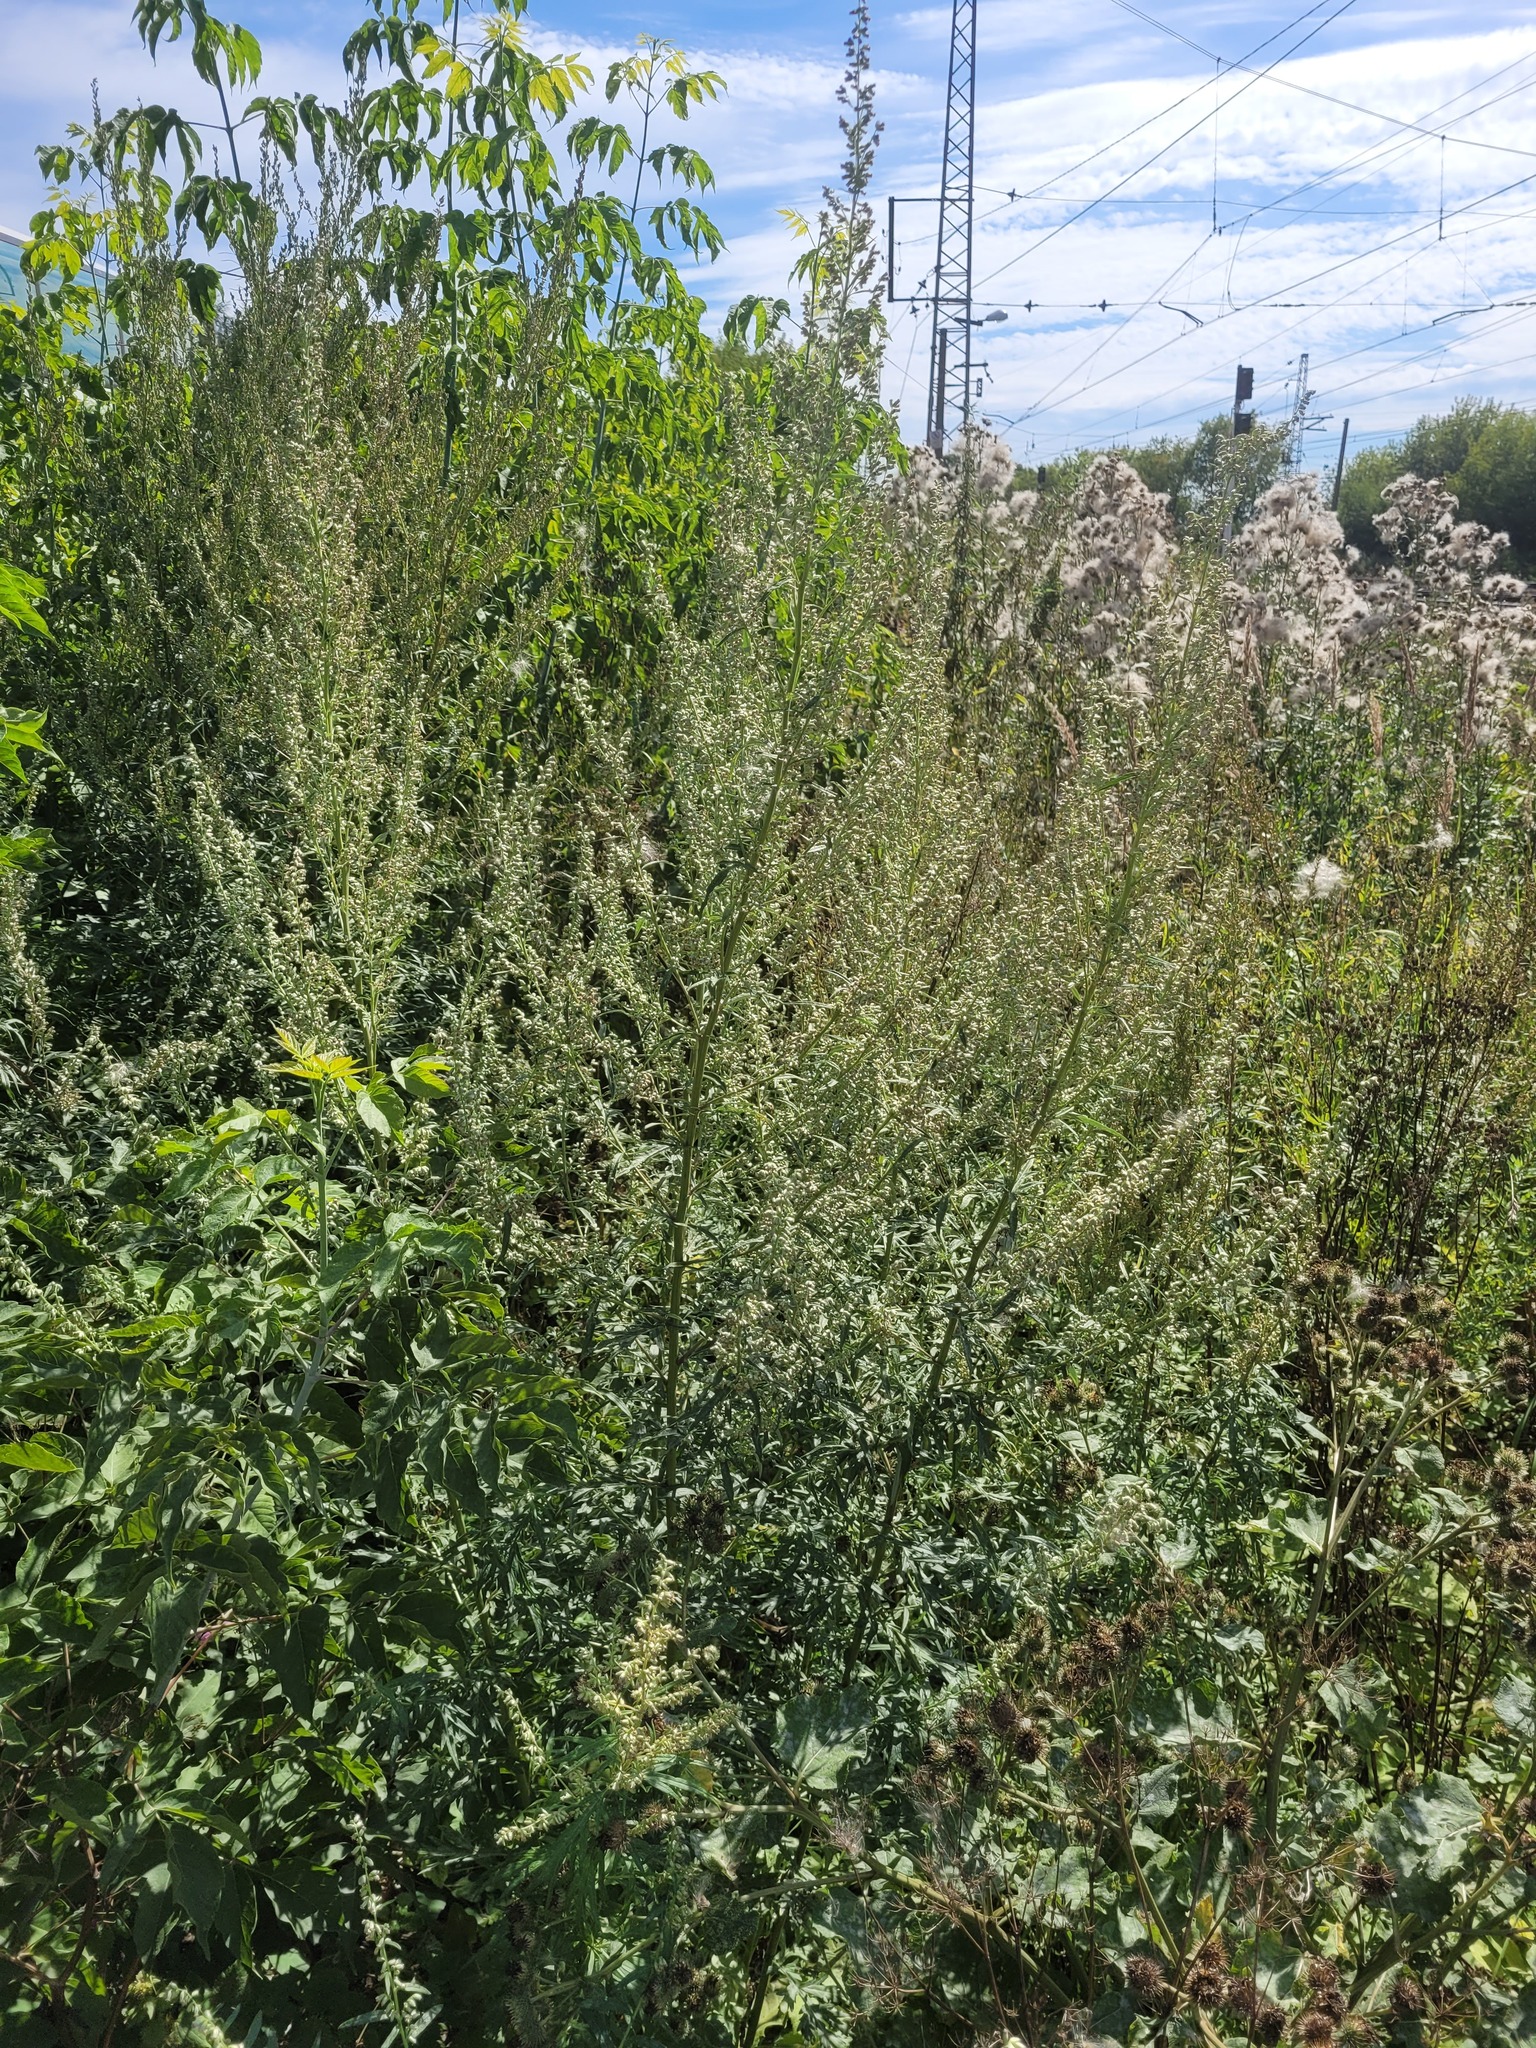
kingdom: Plantae
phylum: Tracheophyta
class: Magnoliopsida
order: Asterales
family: Asteraceae
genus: Artemisia
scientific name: Artemisia vulgaris
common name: Mugwort
